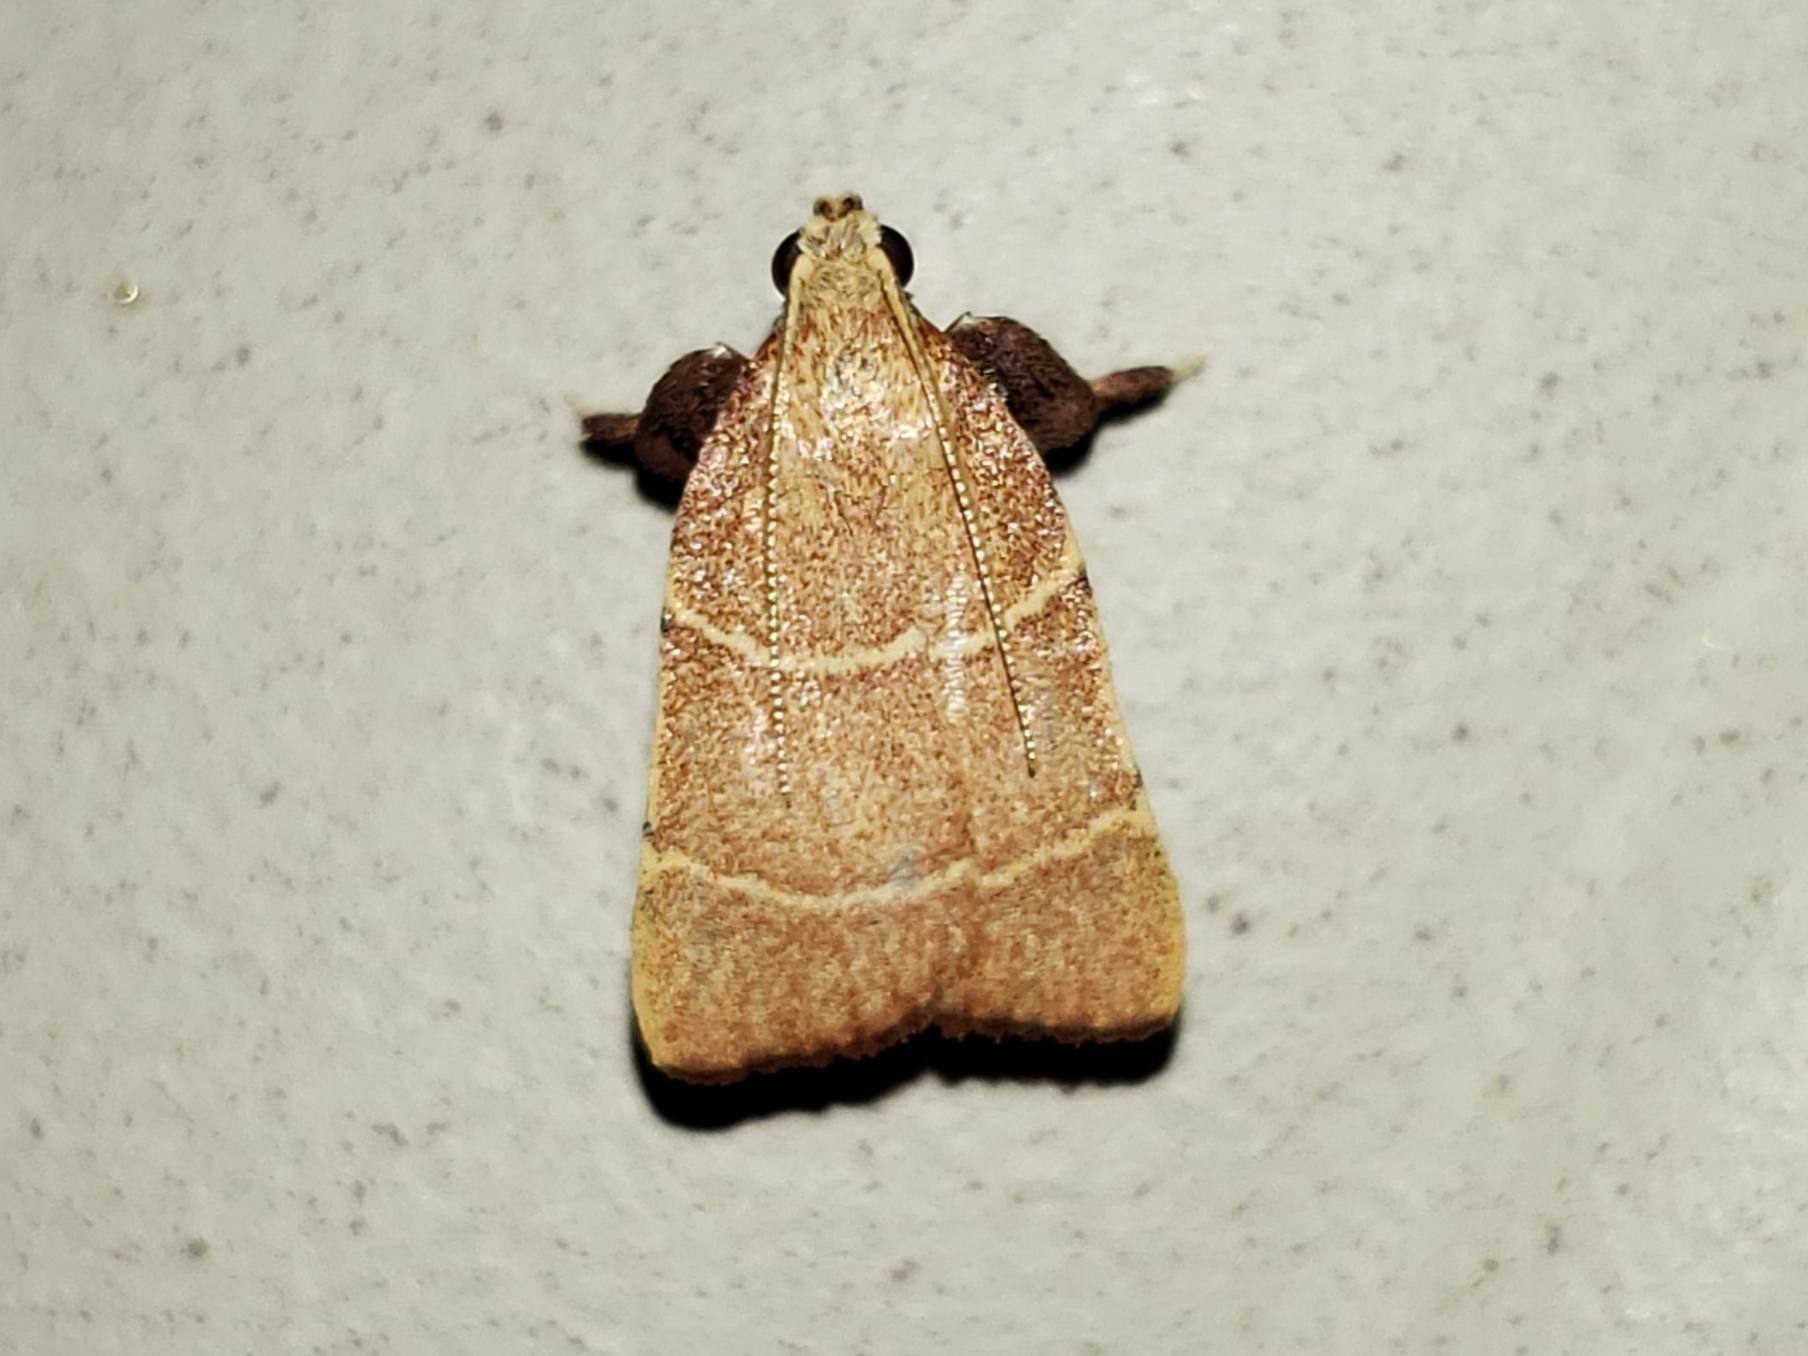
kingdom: Animalia
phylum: Arthropoda
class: Insecta
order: Lepidoptera
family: Pyralidae
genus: Parachma
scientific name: Parachma ochracealis
